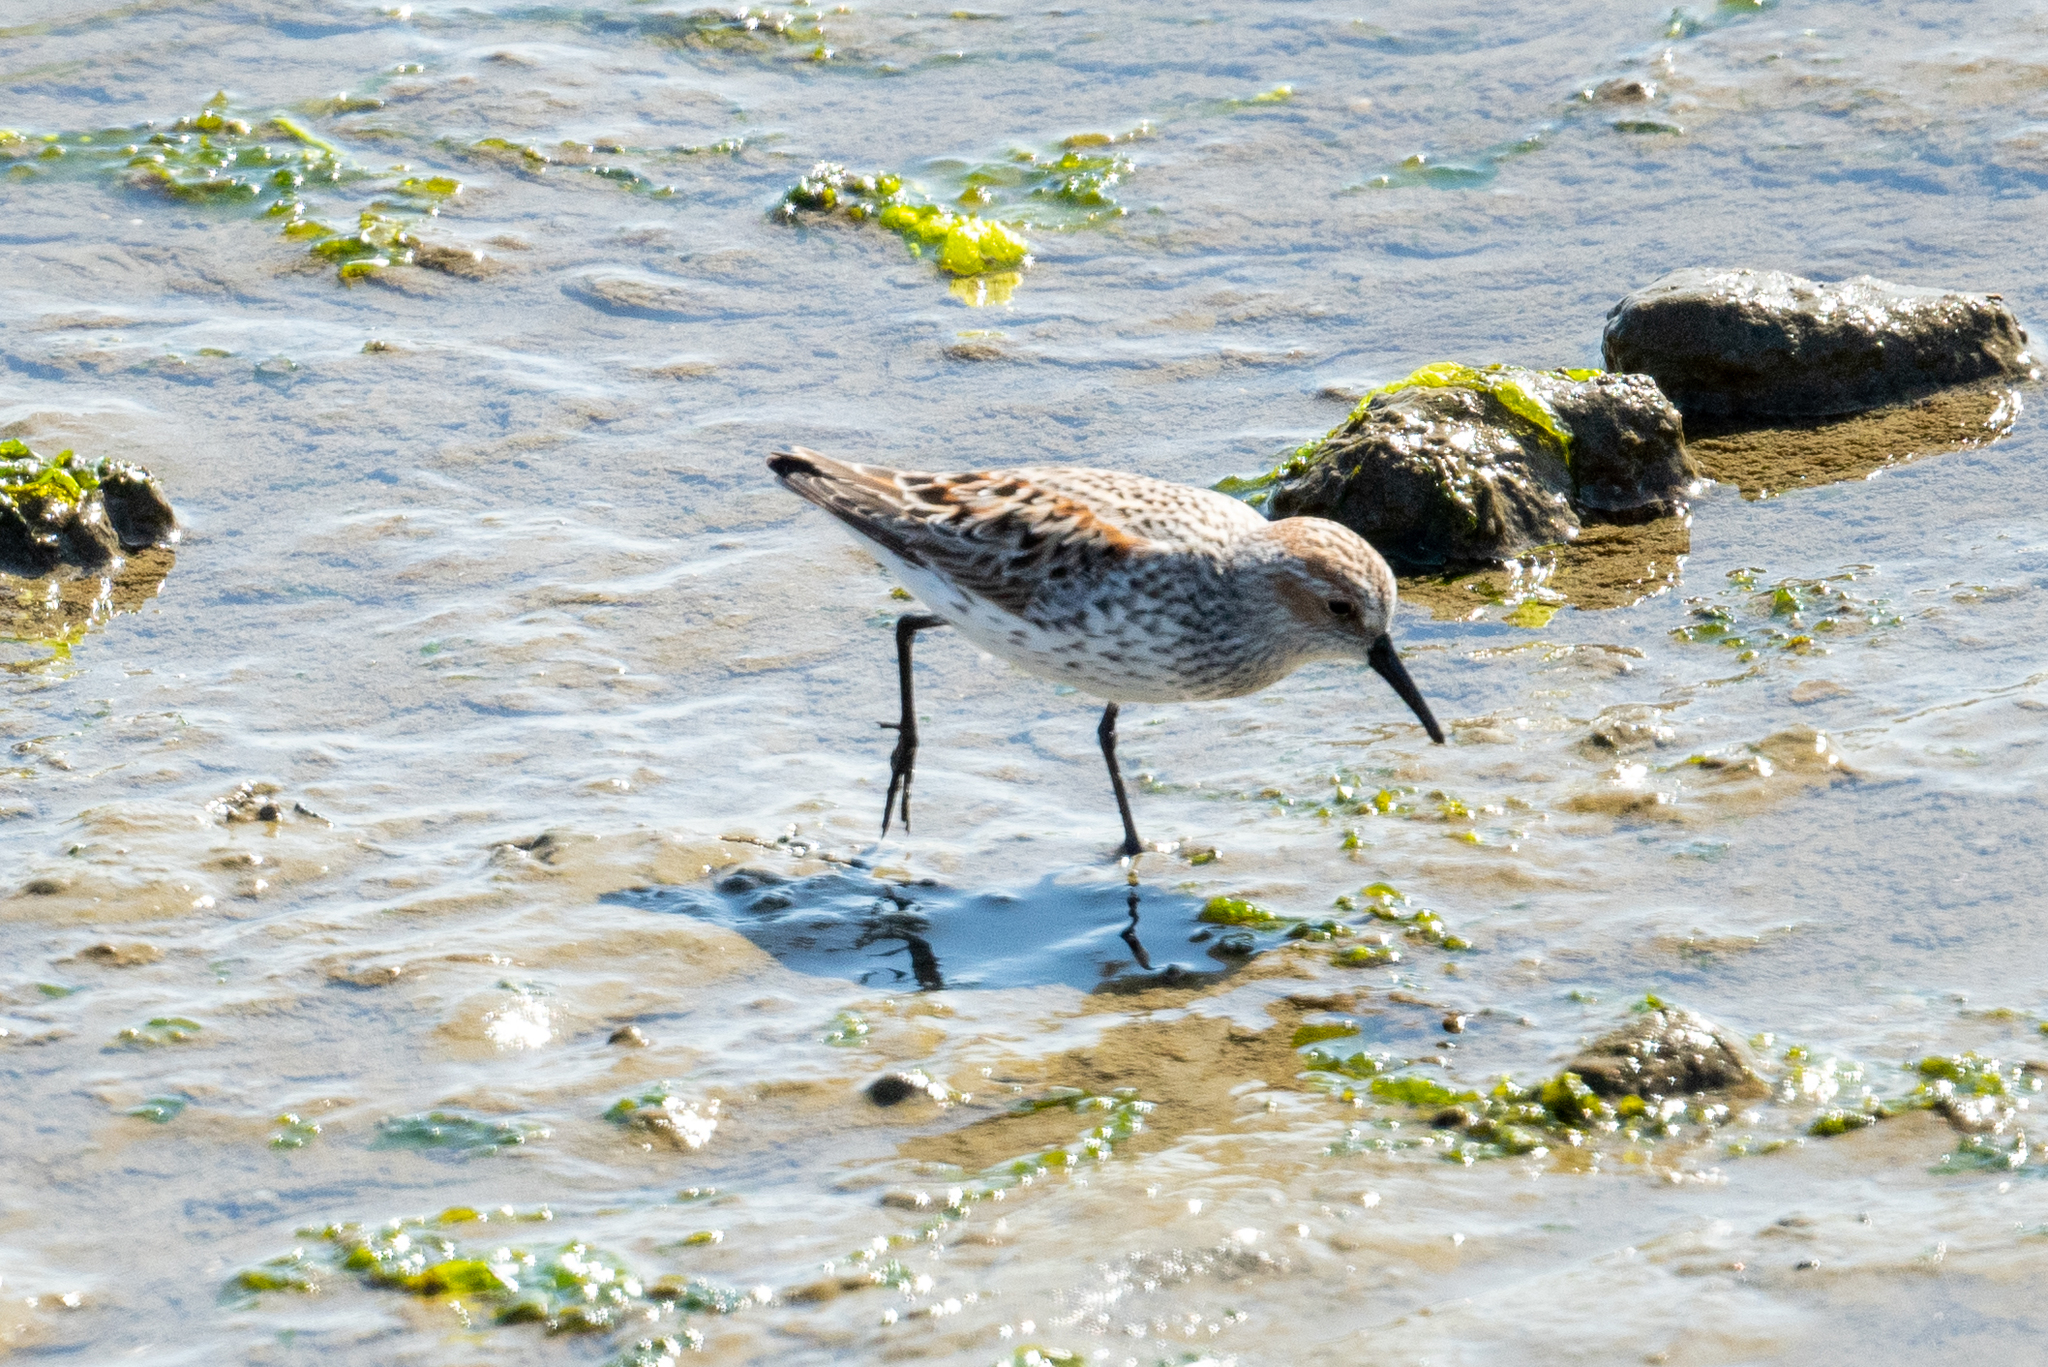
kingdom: Animalia
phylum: Chordata
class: Aves
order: Charadriiformes
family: Scolopacidae
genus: Calidris
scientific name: Calidris mauri
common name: Western sandpiper
